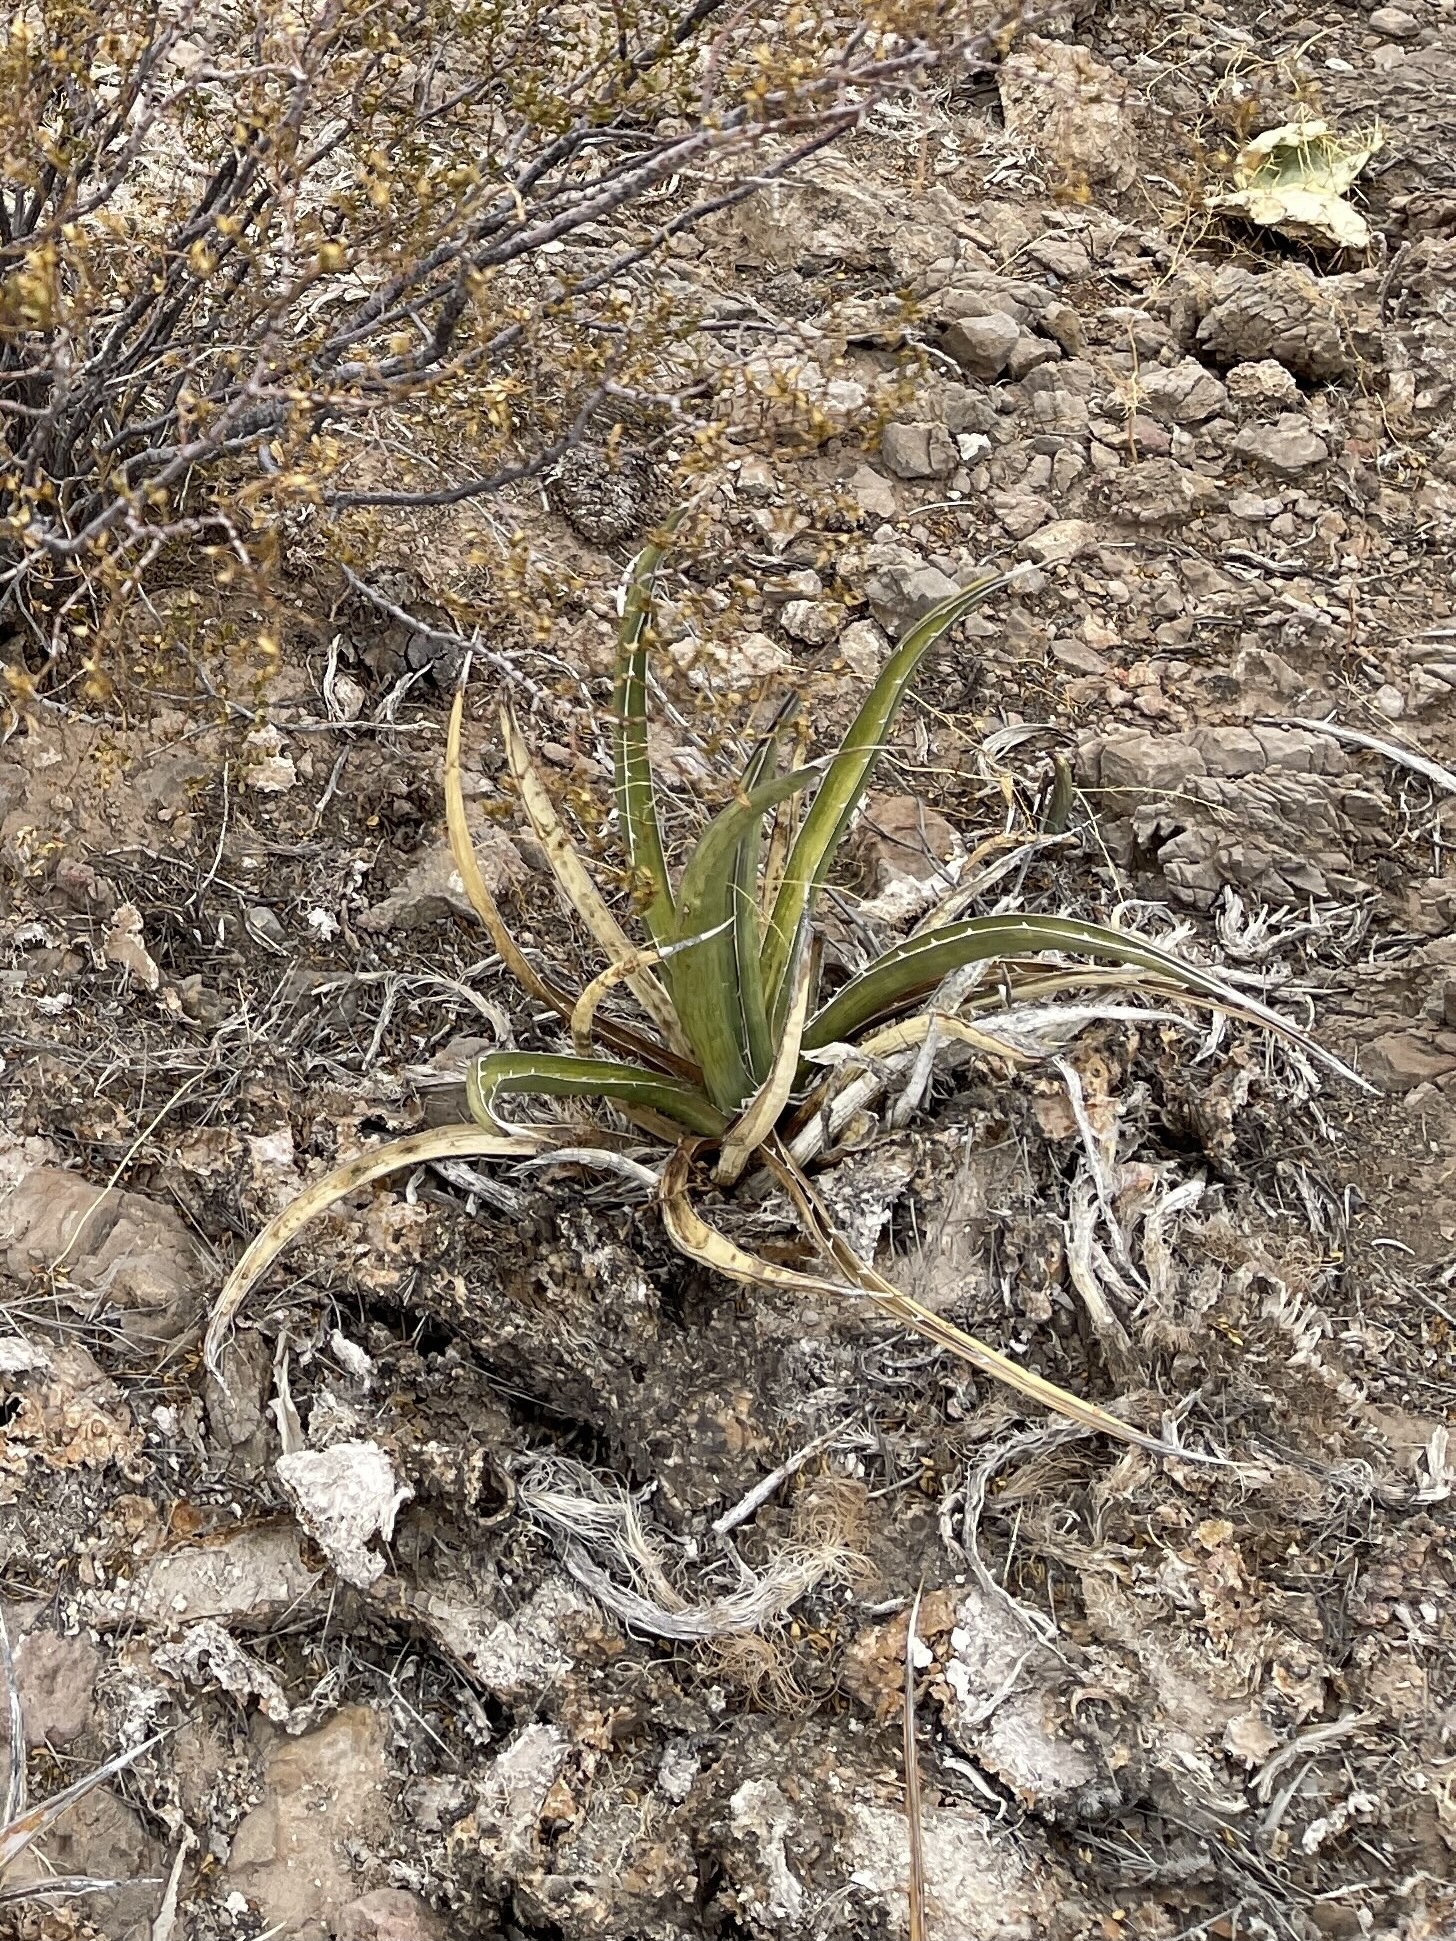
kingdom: Plantae
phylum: Tracheophyta
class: Liliopsida
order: Asparagales
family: Asparagaceae
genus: Agave
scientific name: Agave lechuguilla
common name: Lecheguilla agave
